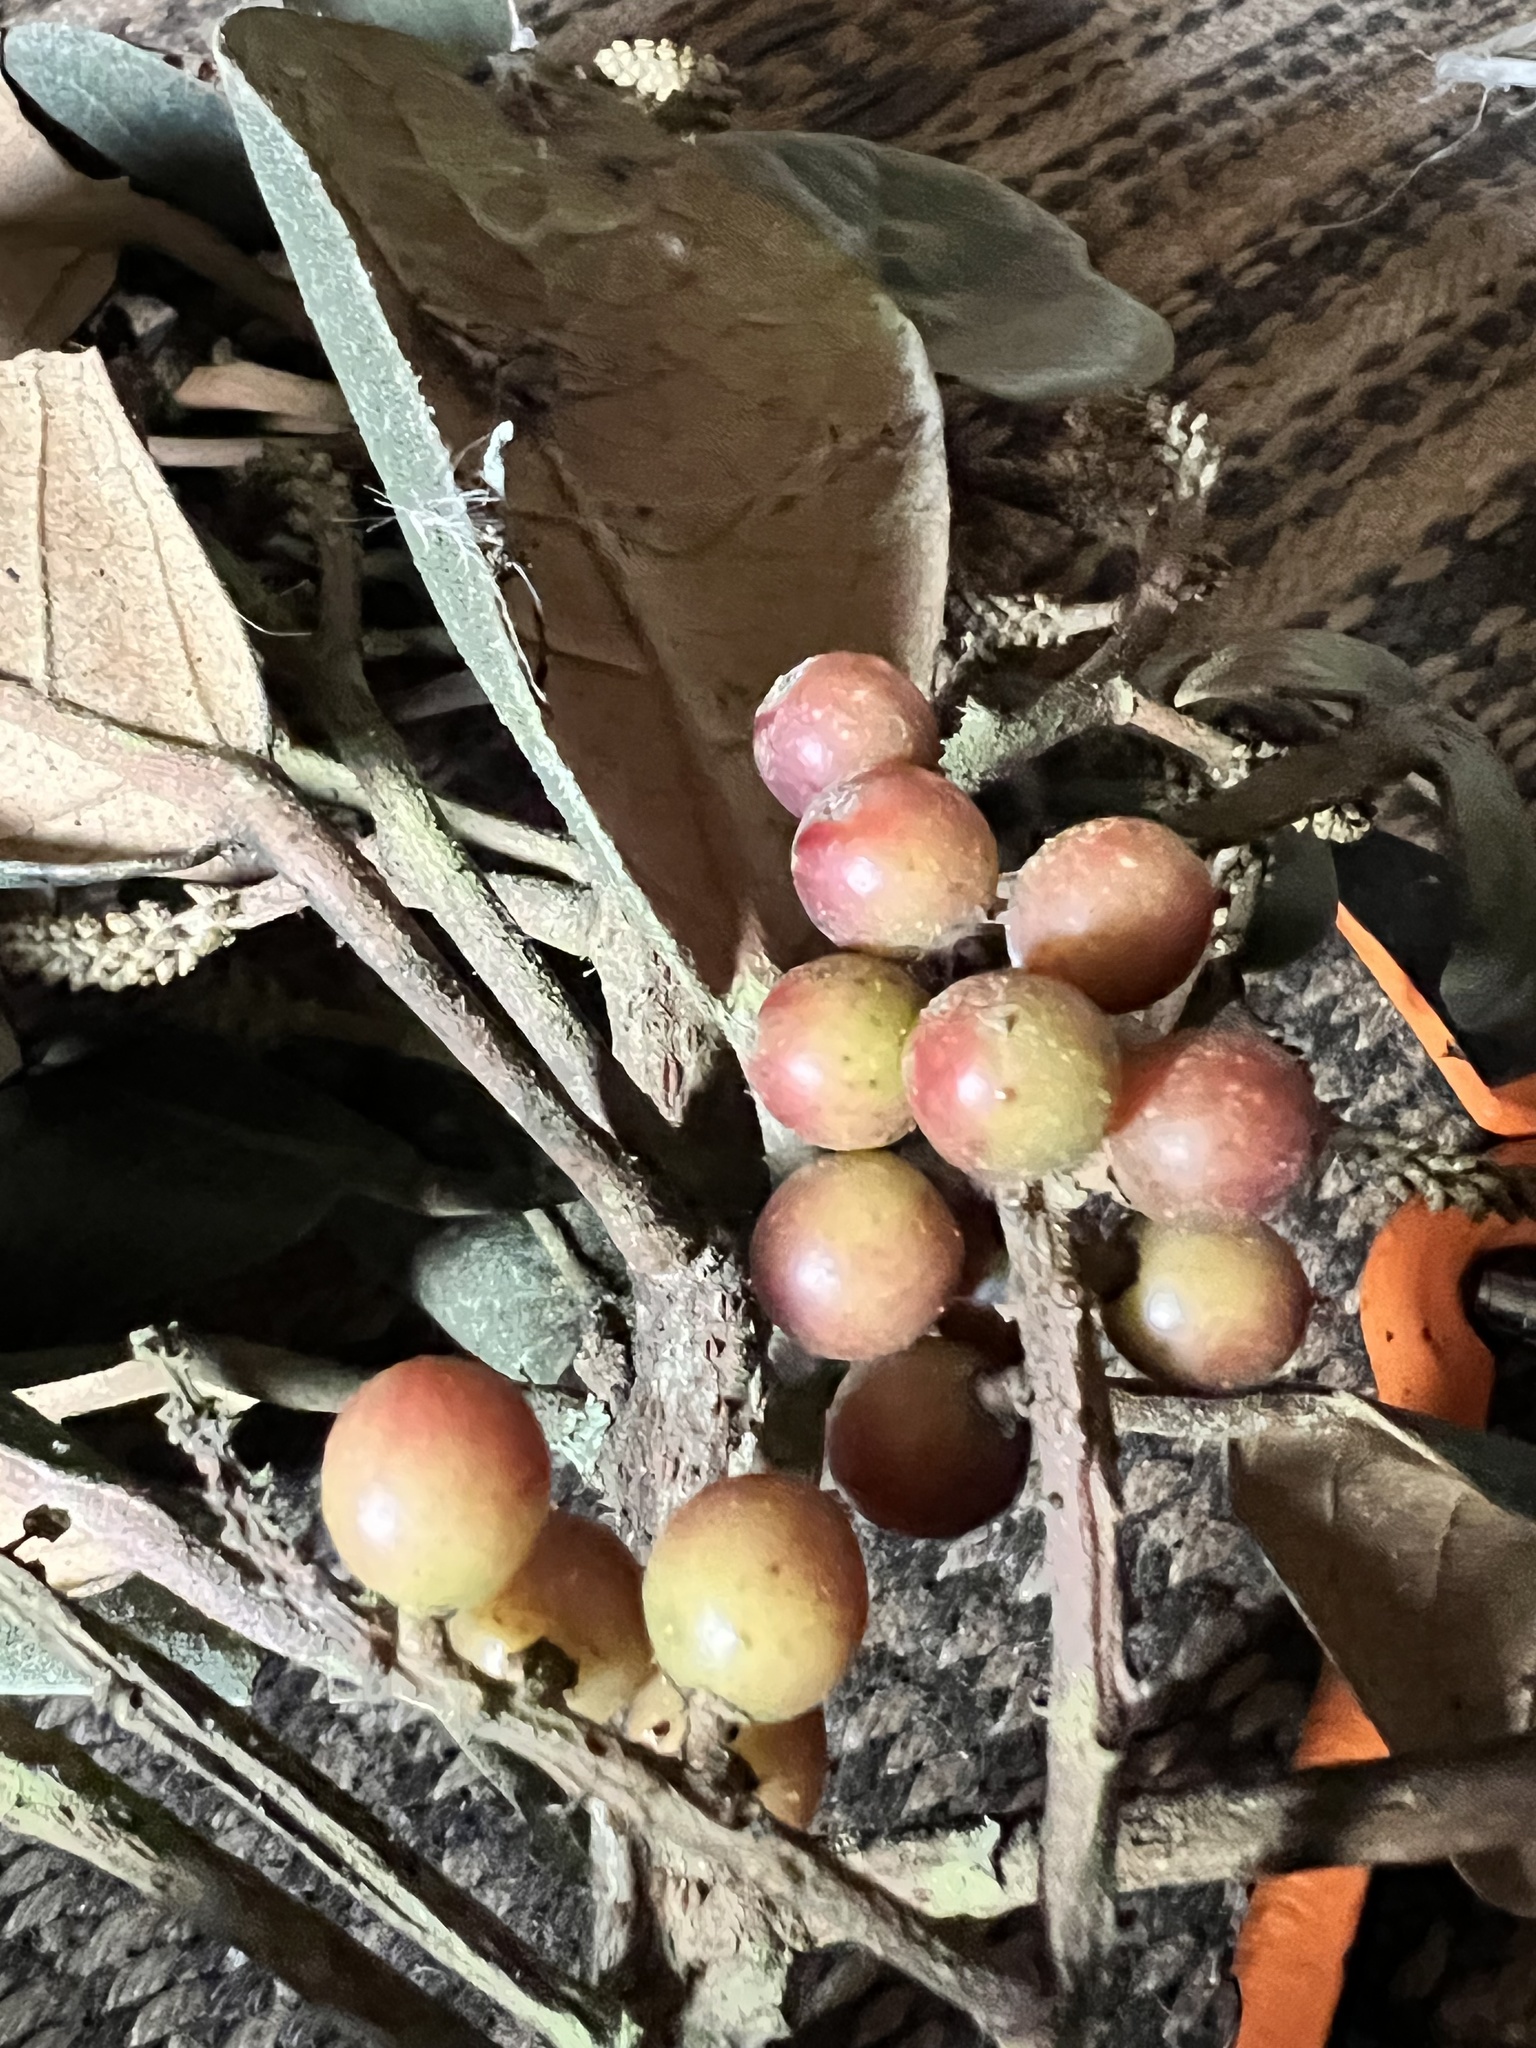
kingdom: Plantae
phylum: Tracheophyta
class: Magnoliopsida
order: Malpighiales
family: Phyllanthaceae
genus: Hieronyma
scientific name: Hieronyma rufa
